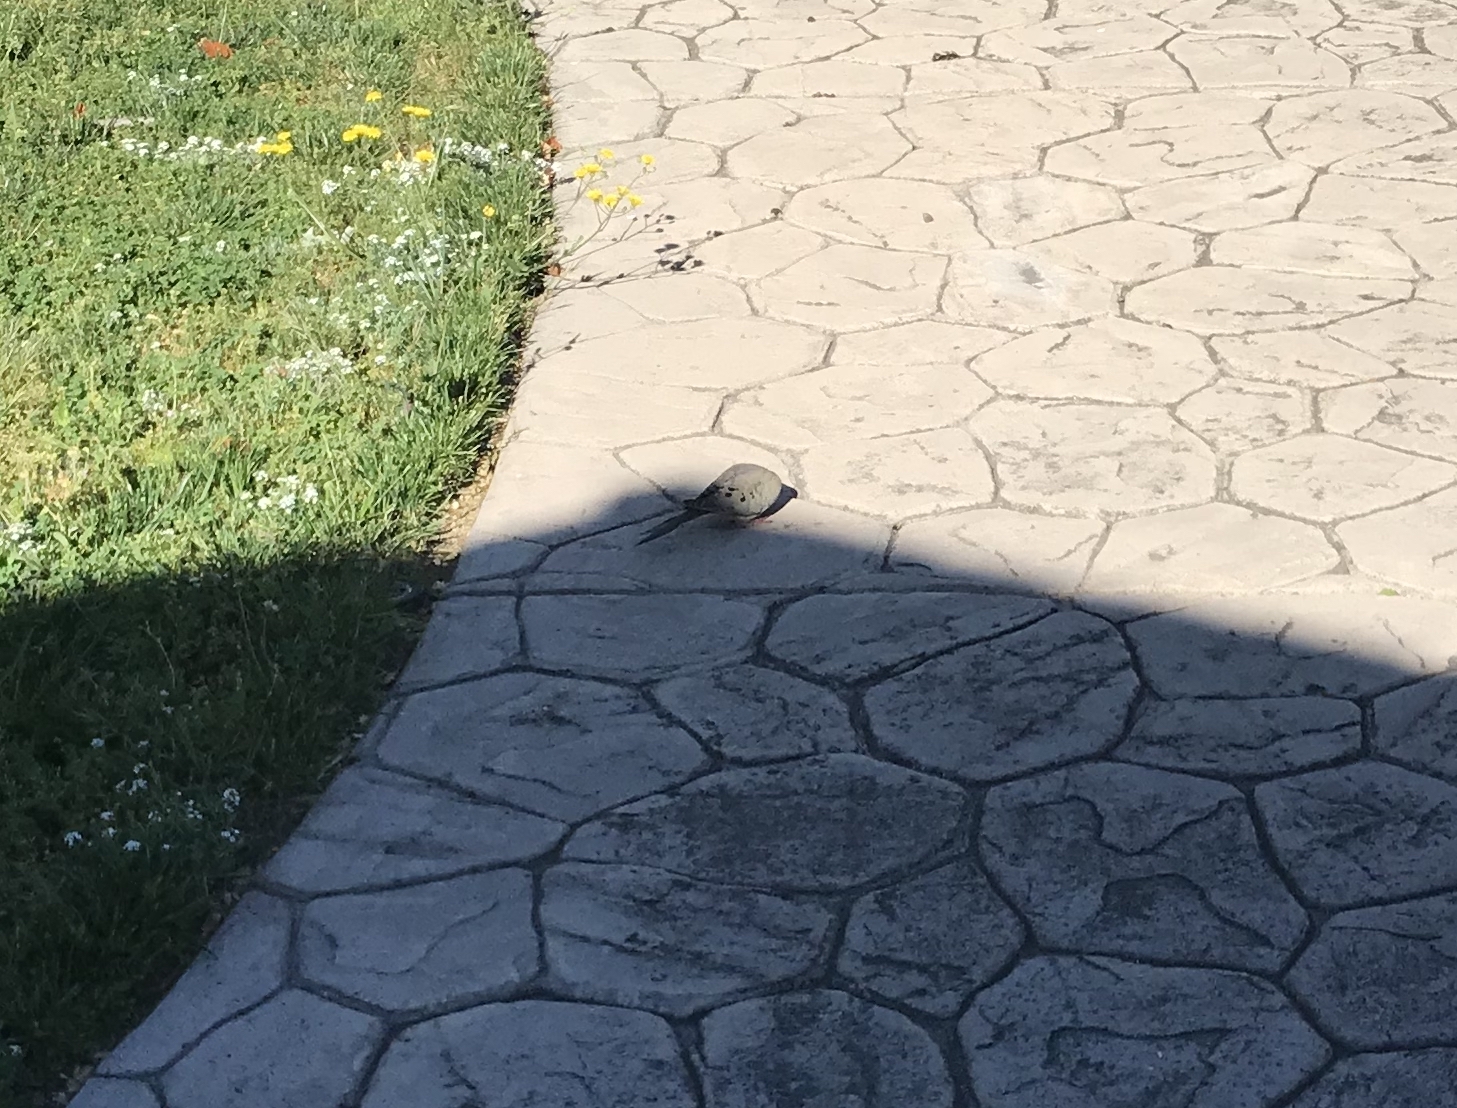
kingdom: Animalia
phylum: Chordata
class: Aves
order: Columbiformes
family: Columbidae
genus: Zenaida
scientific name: Zenaida macroura
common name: Mourning dove
